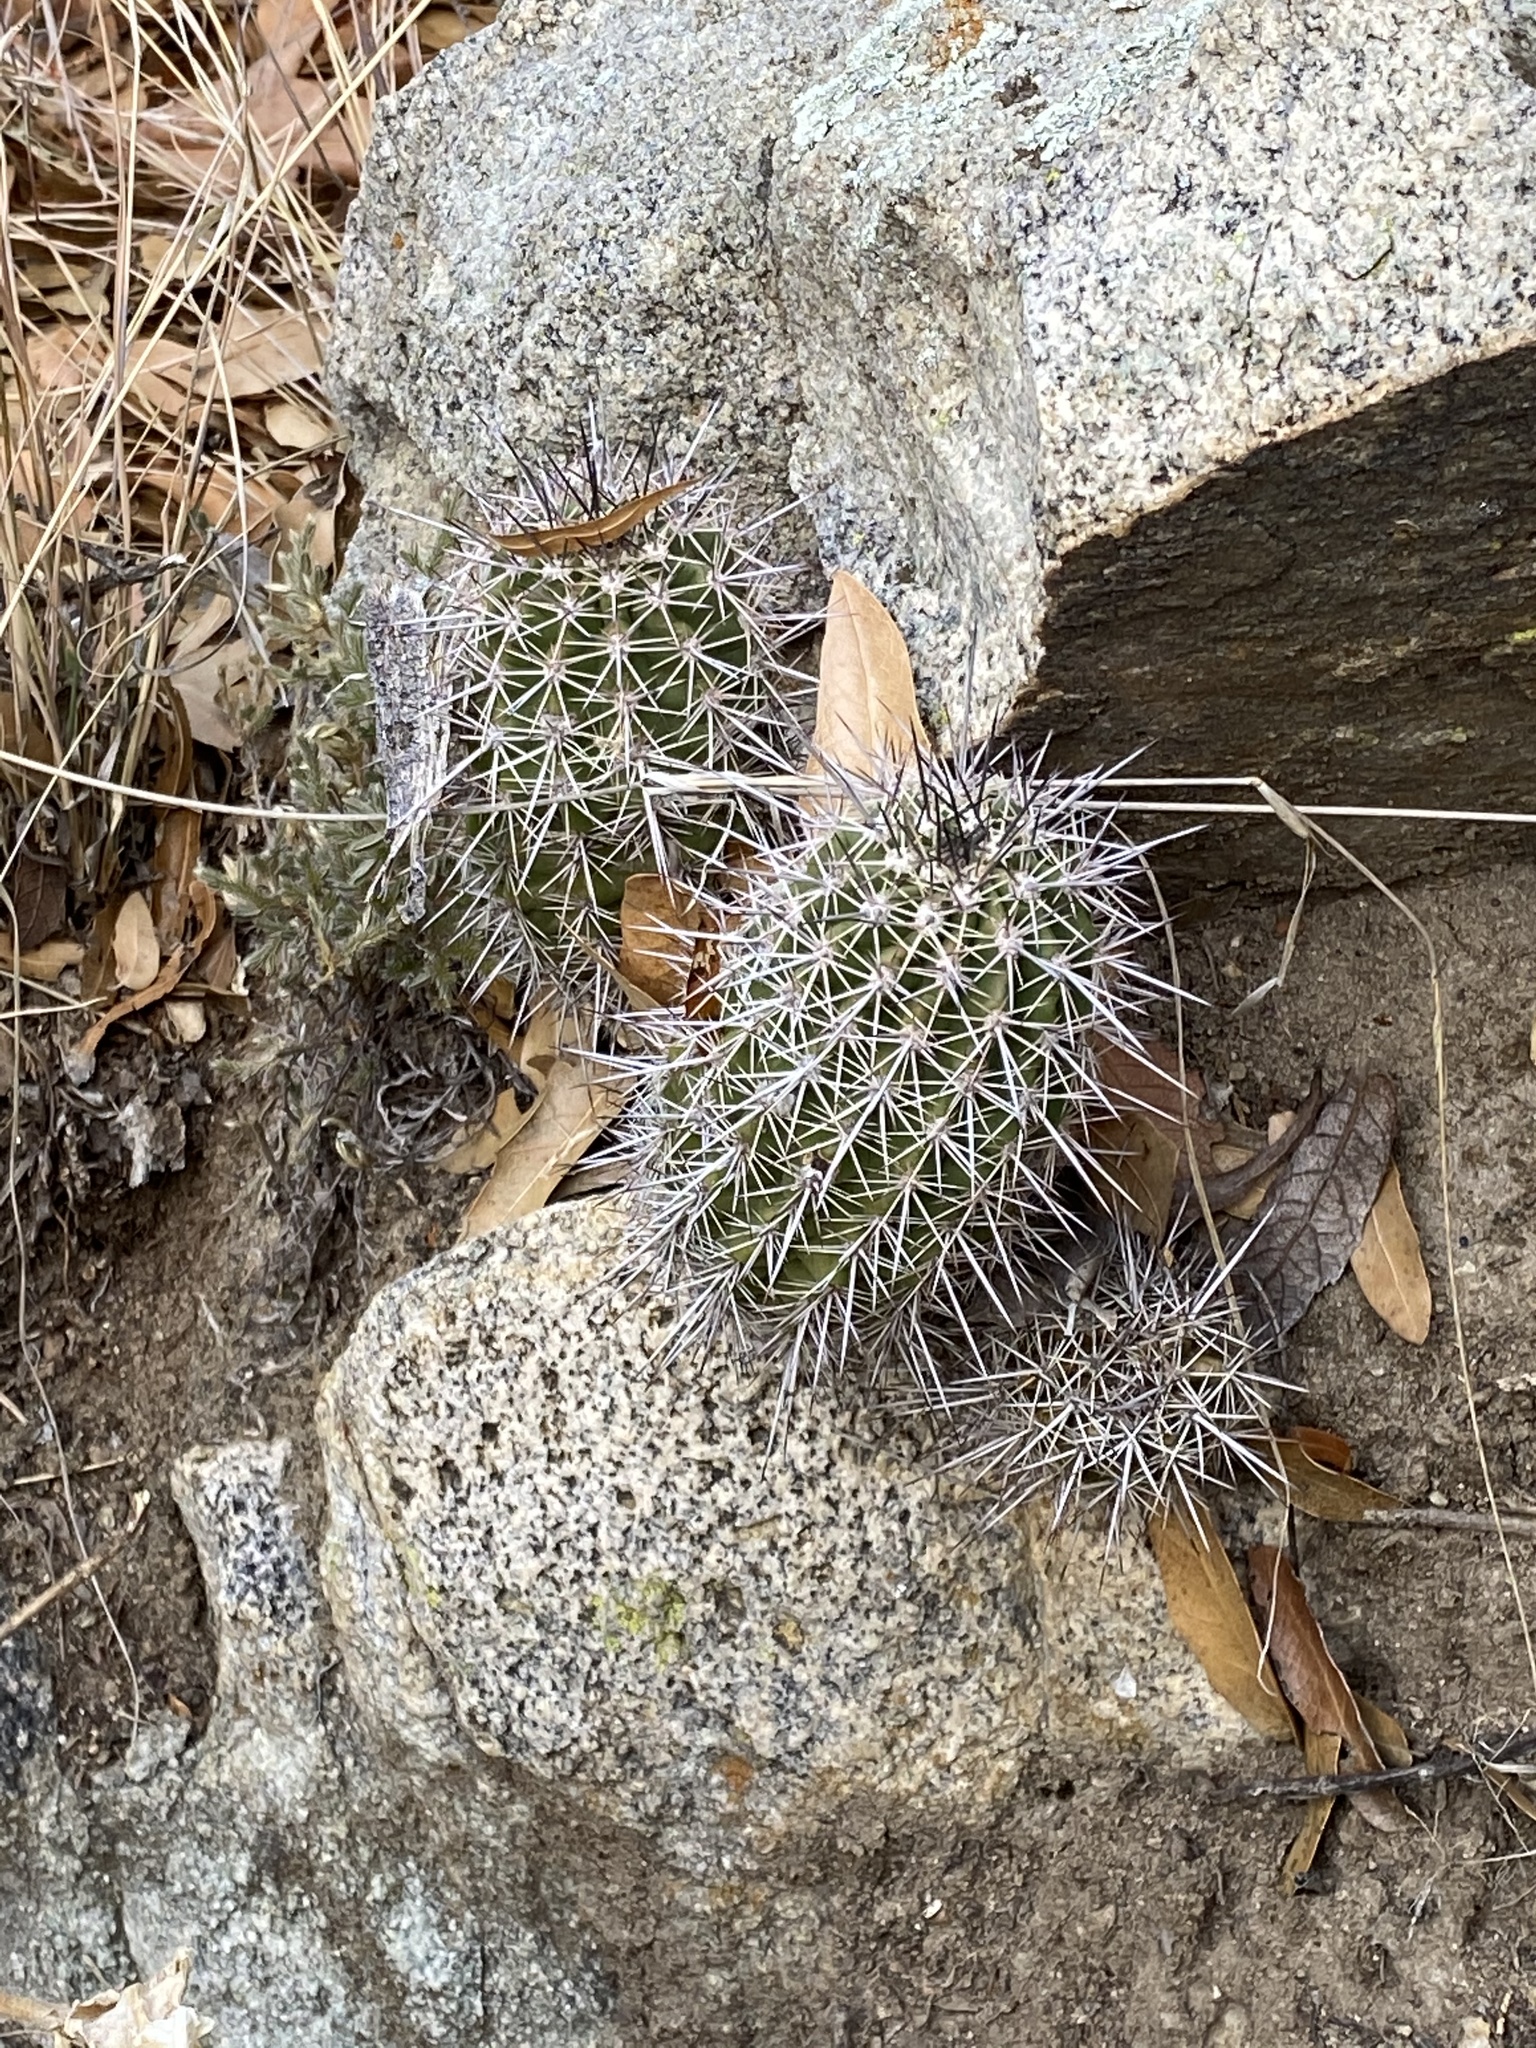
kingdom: Plantae
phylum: Tracheophyta
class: Magnoliopsida
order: Caryophyllales
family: Cactaceae
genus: Echinocereus
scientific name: Echinocereus coccineus
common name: Scarlet hedgehog cactus
